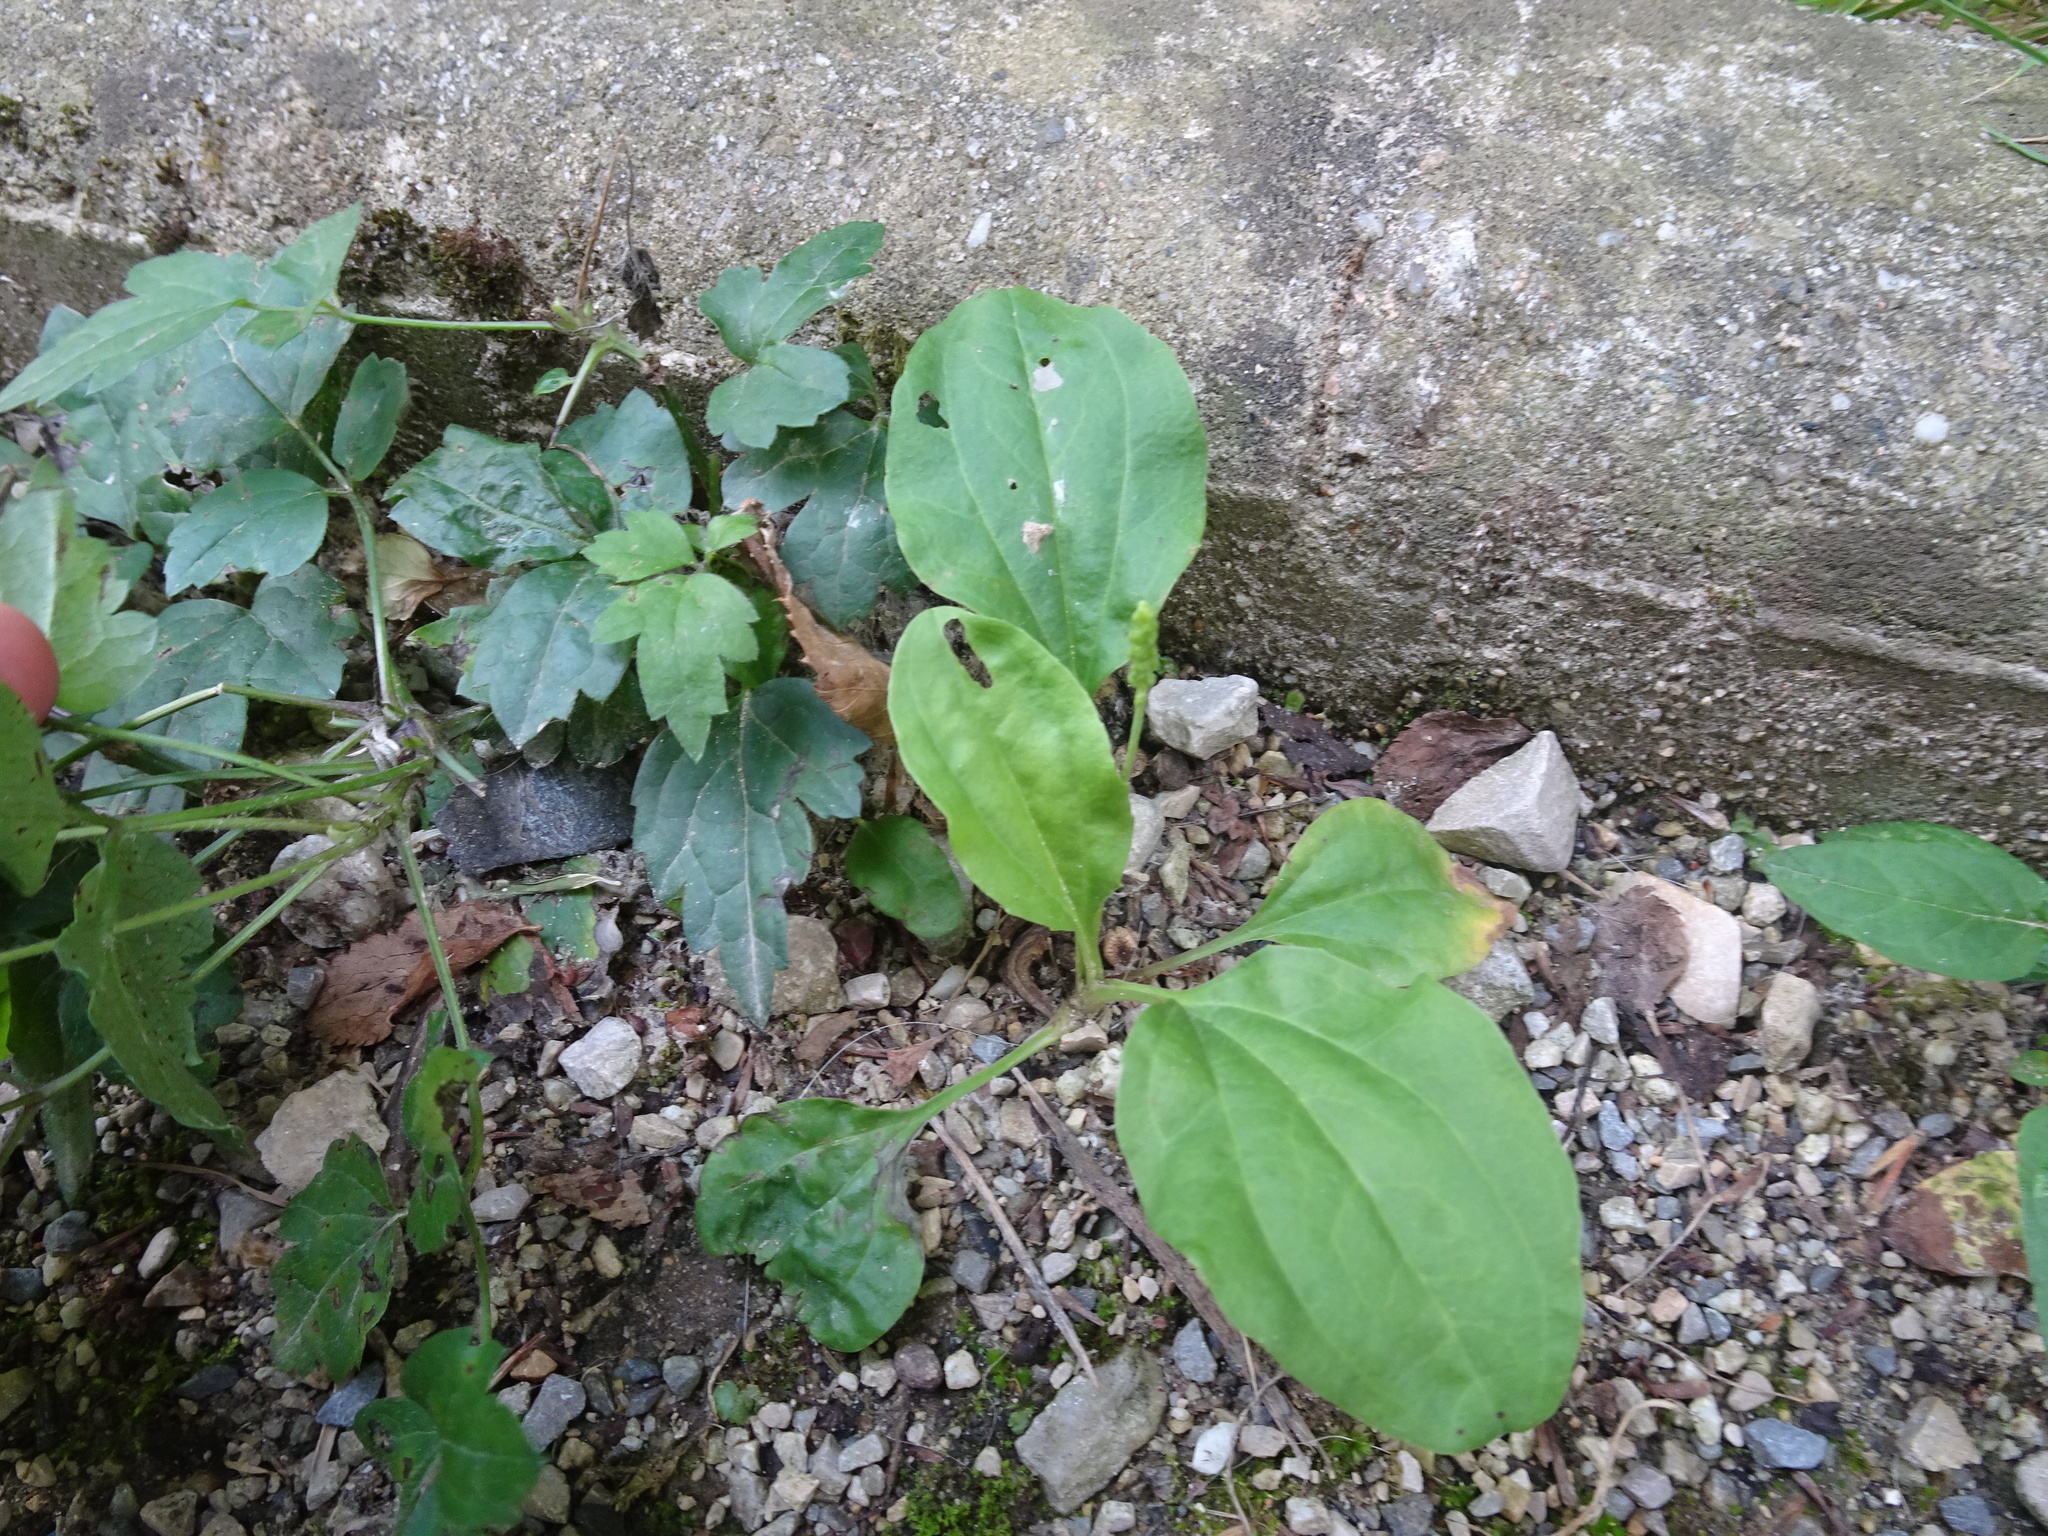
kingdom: Plantae
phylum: Tracheophyta
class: Magnoliopsida
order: Lamiales
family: Plantaginaceae
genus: Plantago
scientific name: Plantago major
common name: Common plantain
